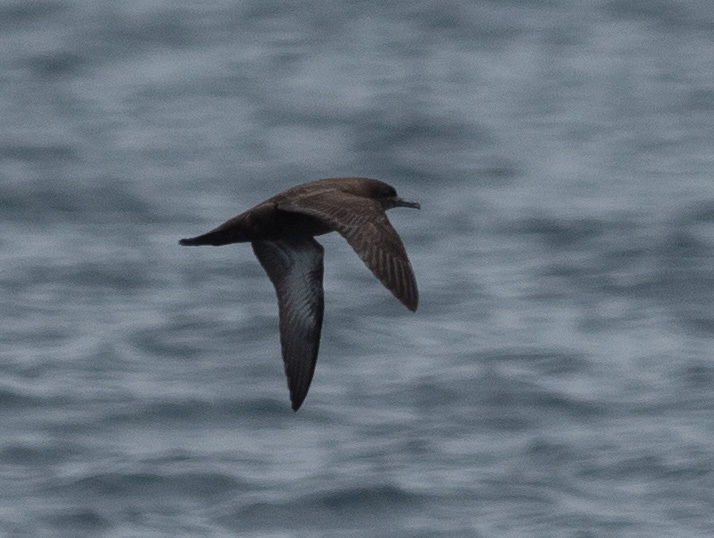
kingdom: Animalia
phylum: Chordata
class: Aves
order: Procellariiformes
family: Procellariidae
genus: Puffinus
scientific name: Puffinus griseus
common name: Sooty shearwater
